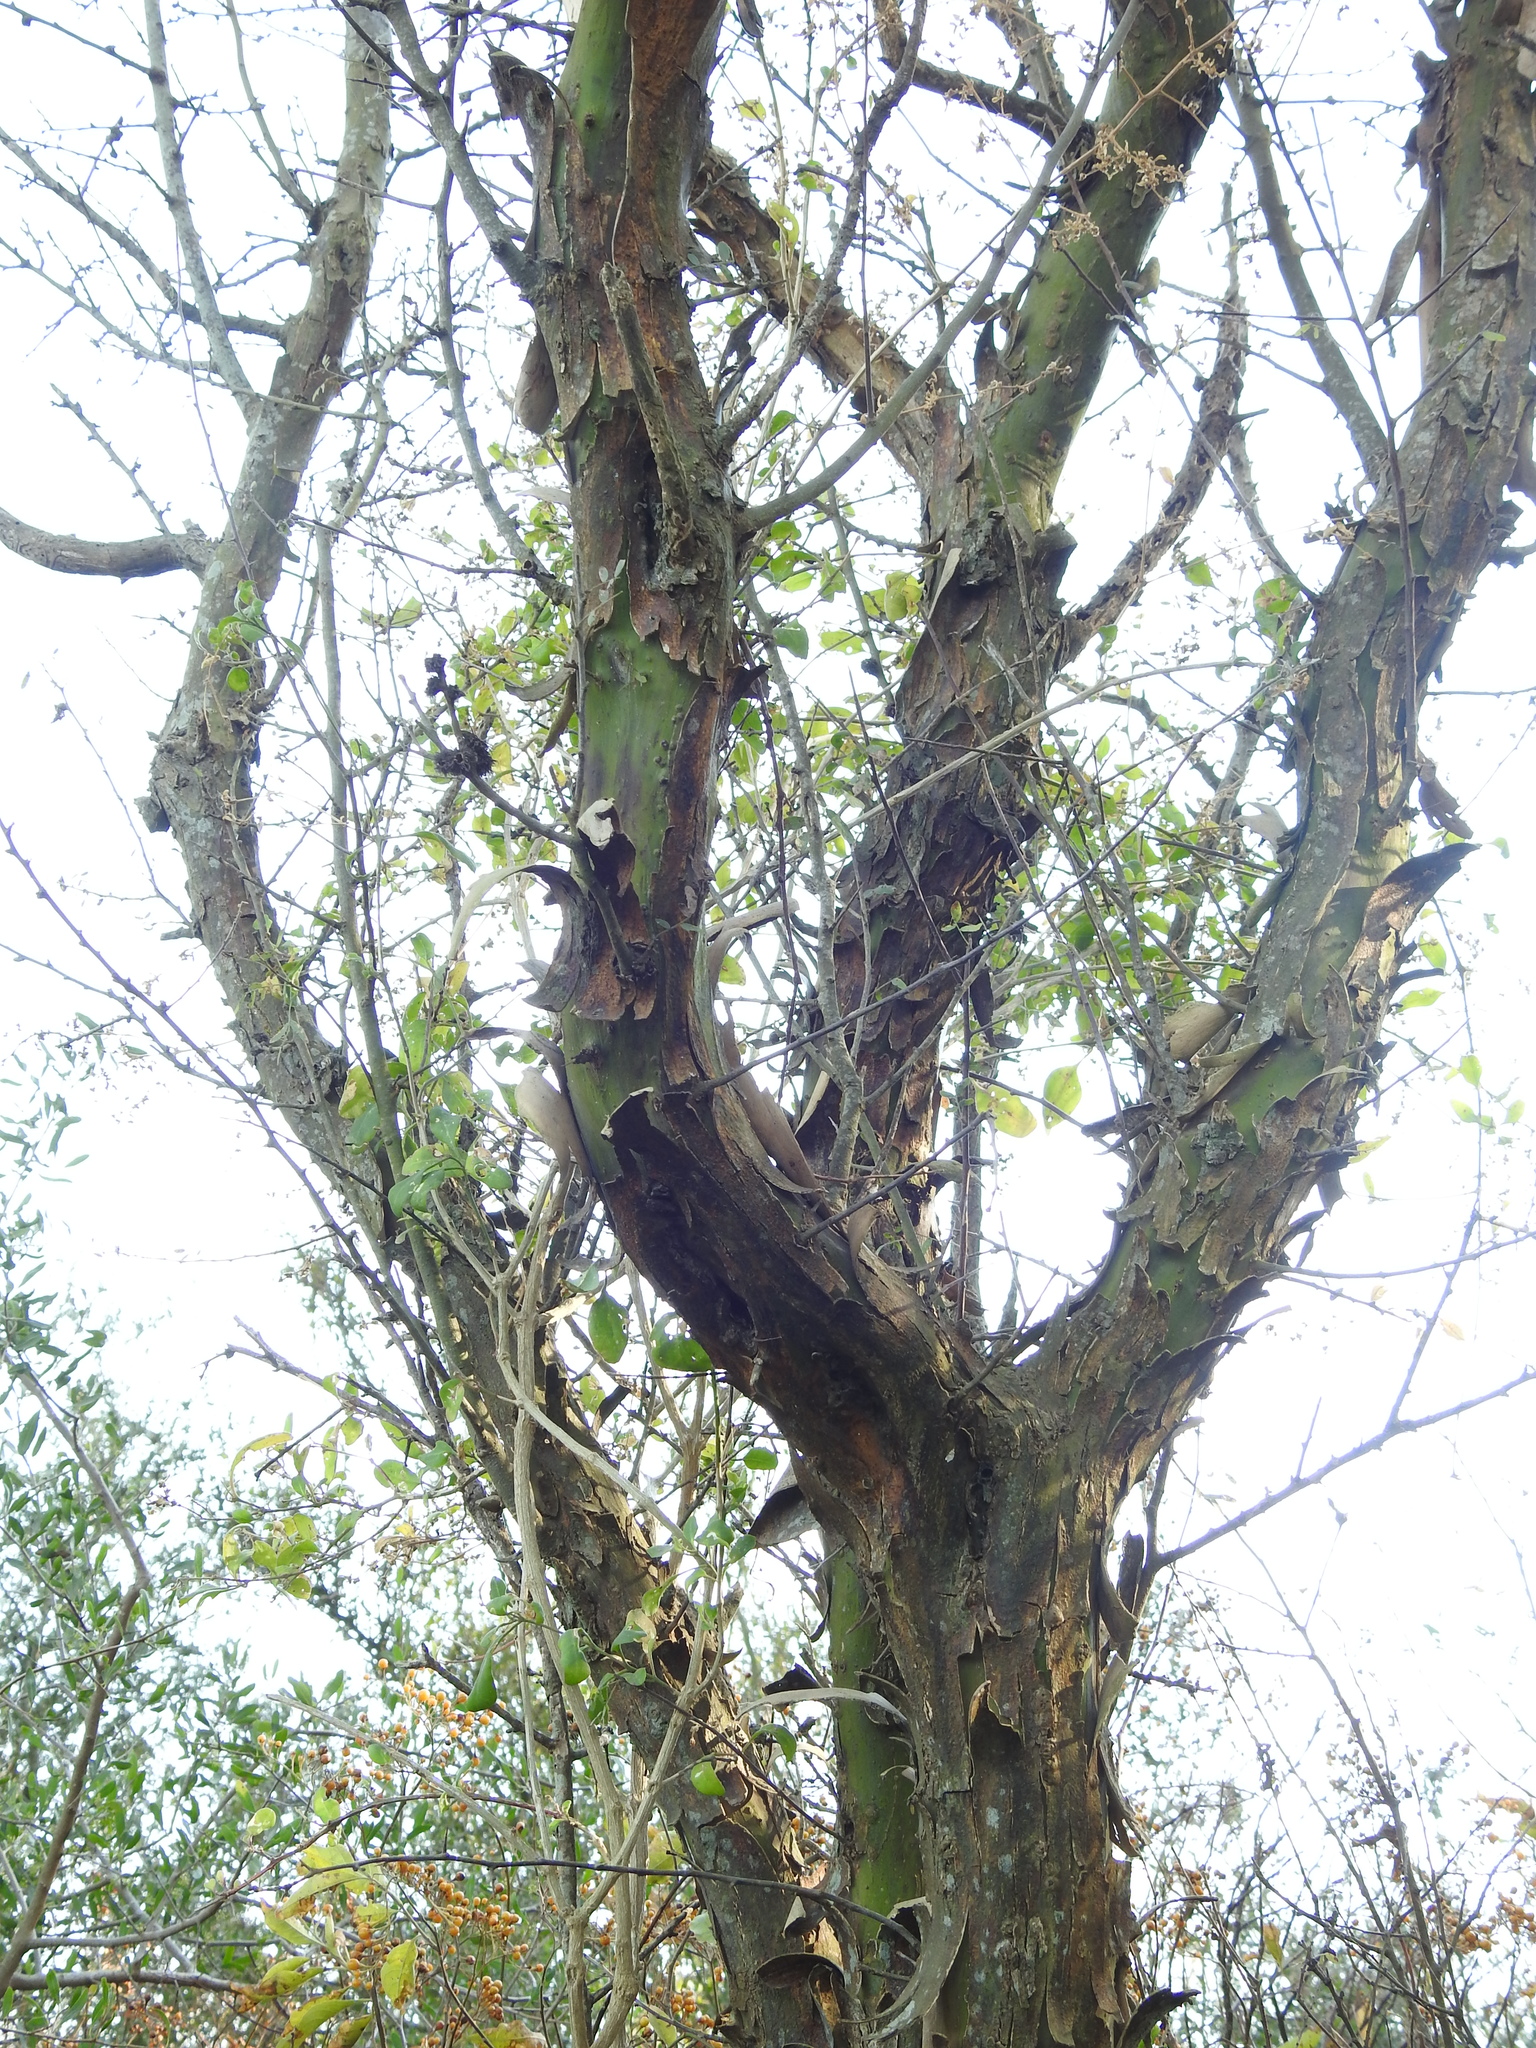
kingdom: Plantae
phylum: Tracheophyta
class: Magnoliopsida
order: Fabales
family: Fabaceae
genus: Geoffroea
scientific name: Geoffroea decorticans
